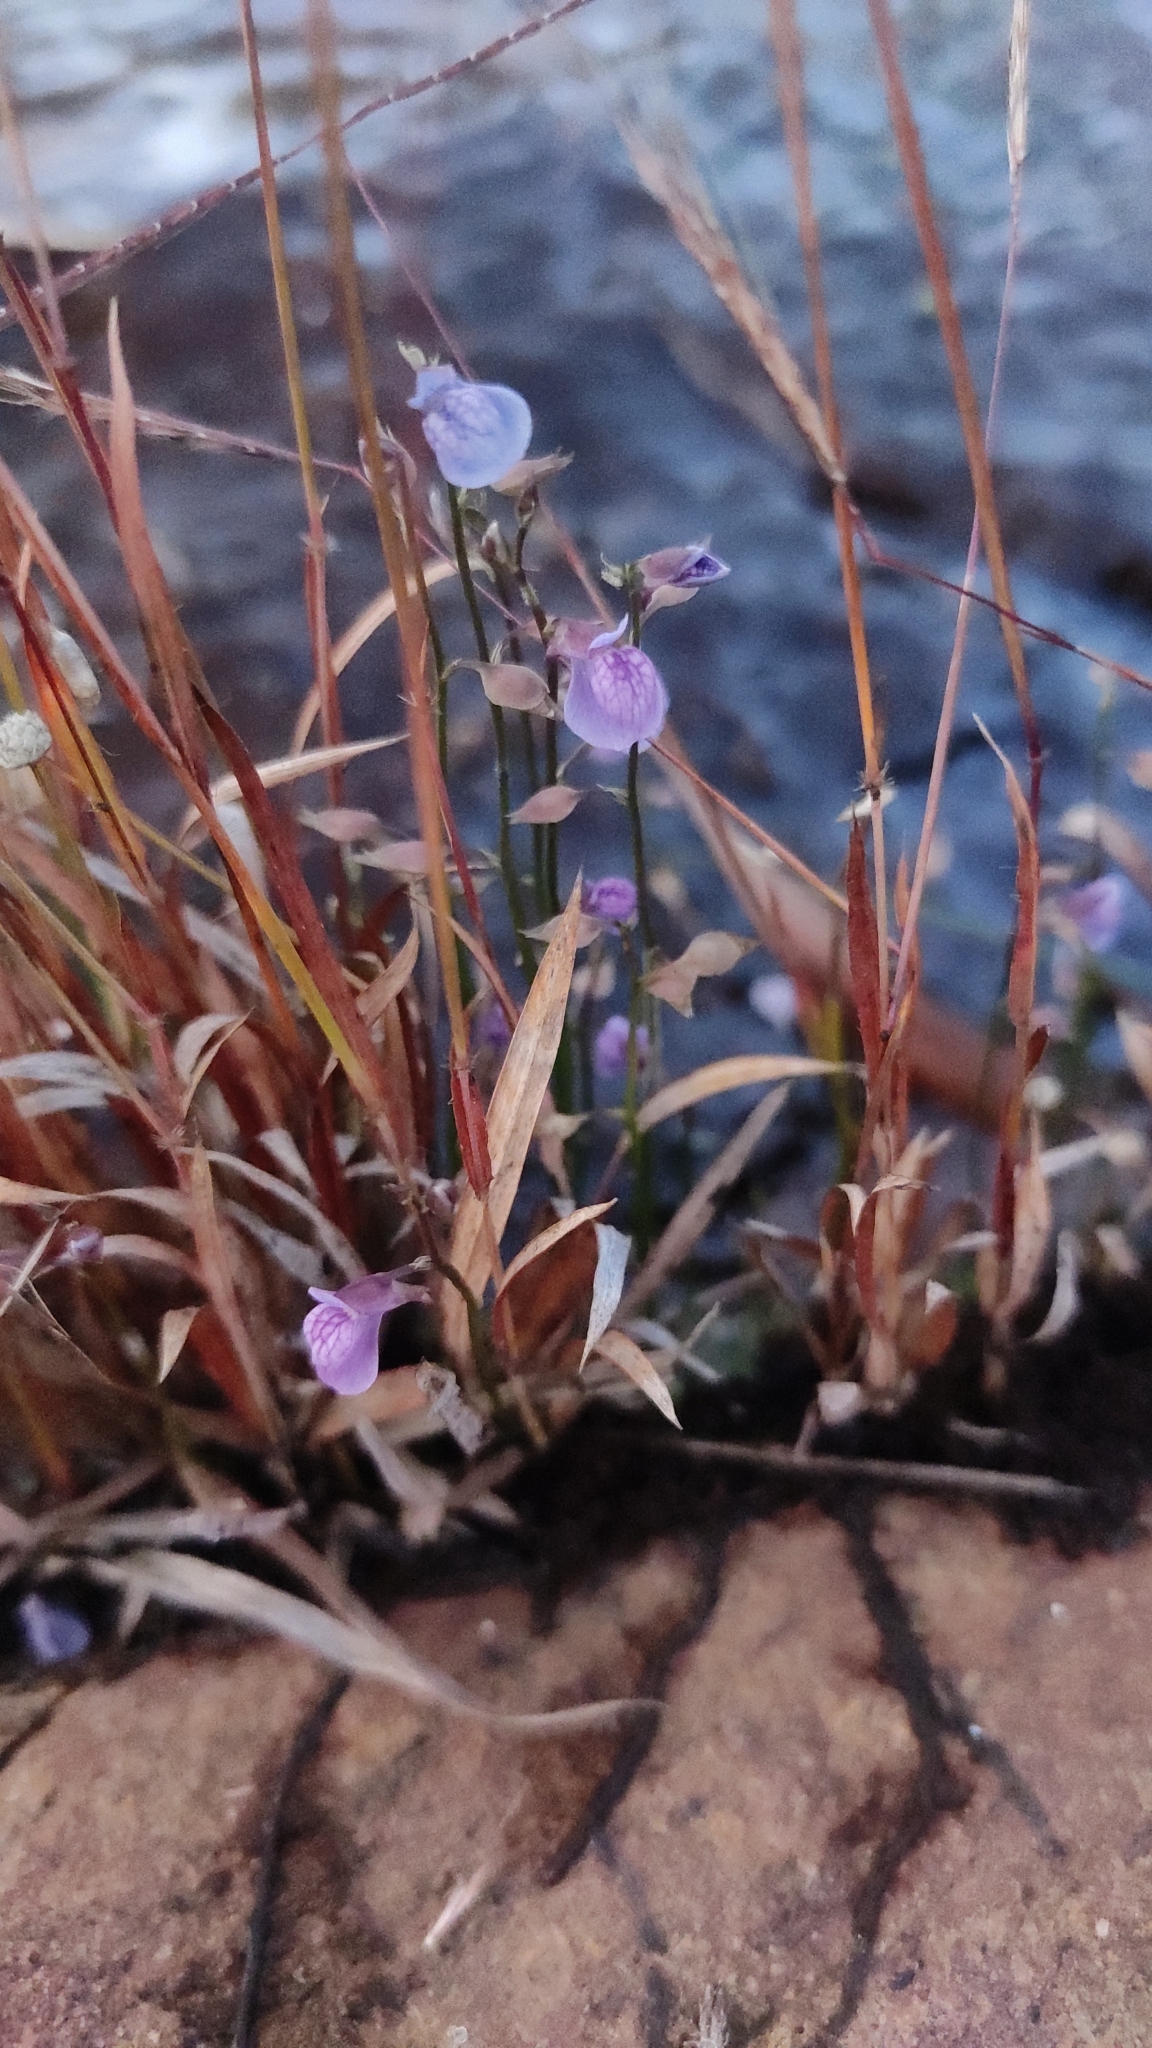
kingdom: Plantae
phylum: Tracheophyta
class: Magnoliopsida
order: Lamiales
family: Lentibulariaceae
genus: Utricularia
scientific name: Utricularia reticulata
